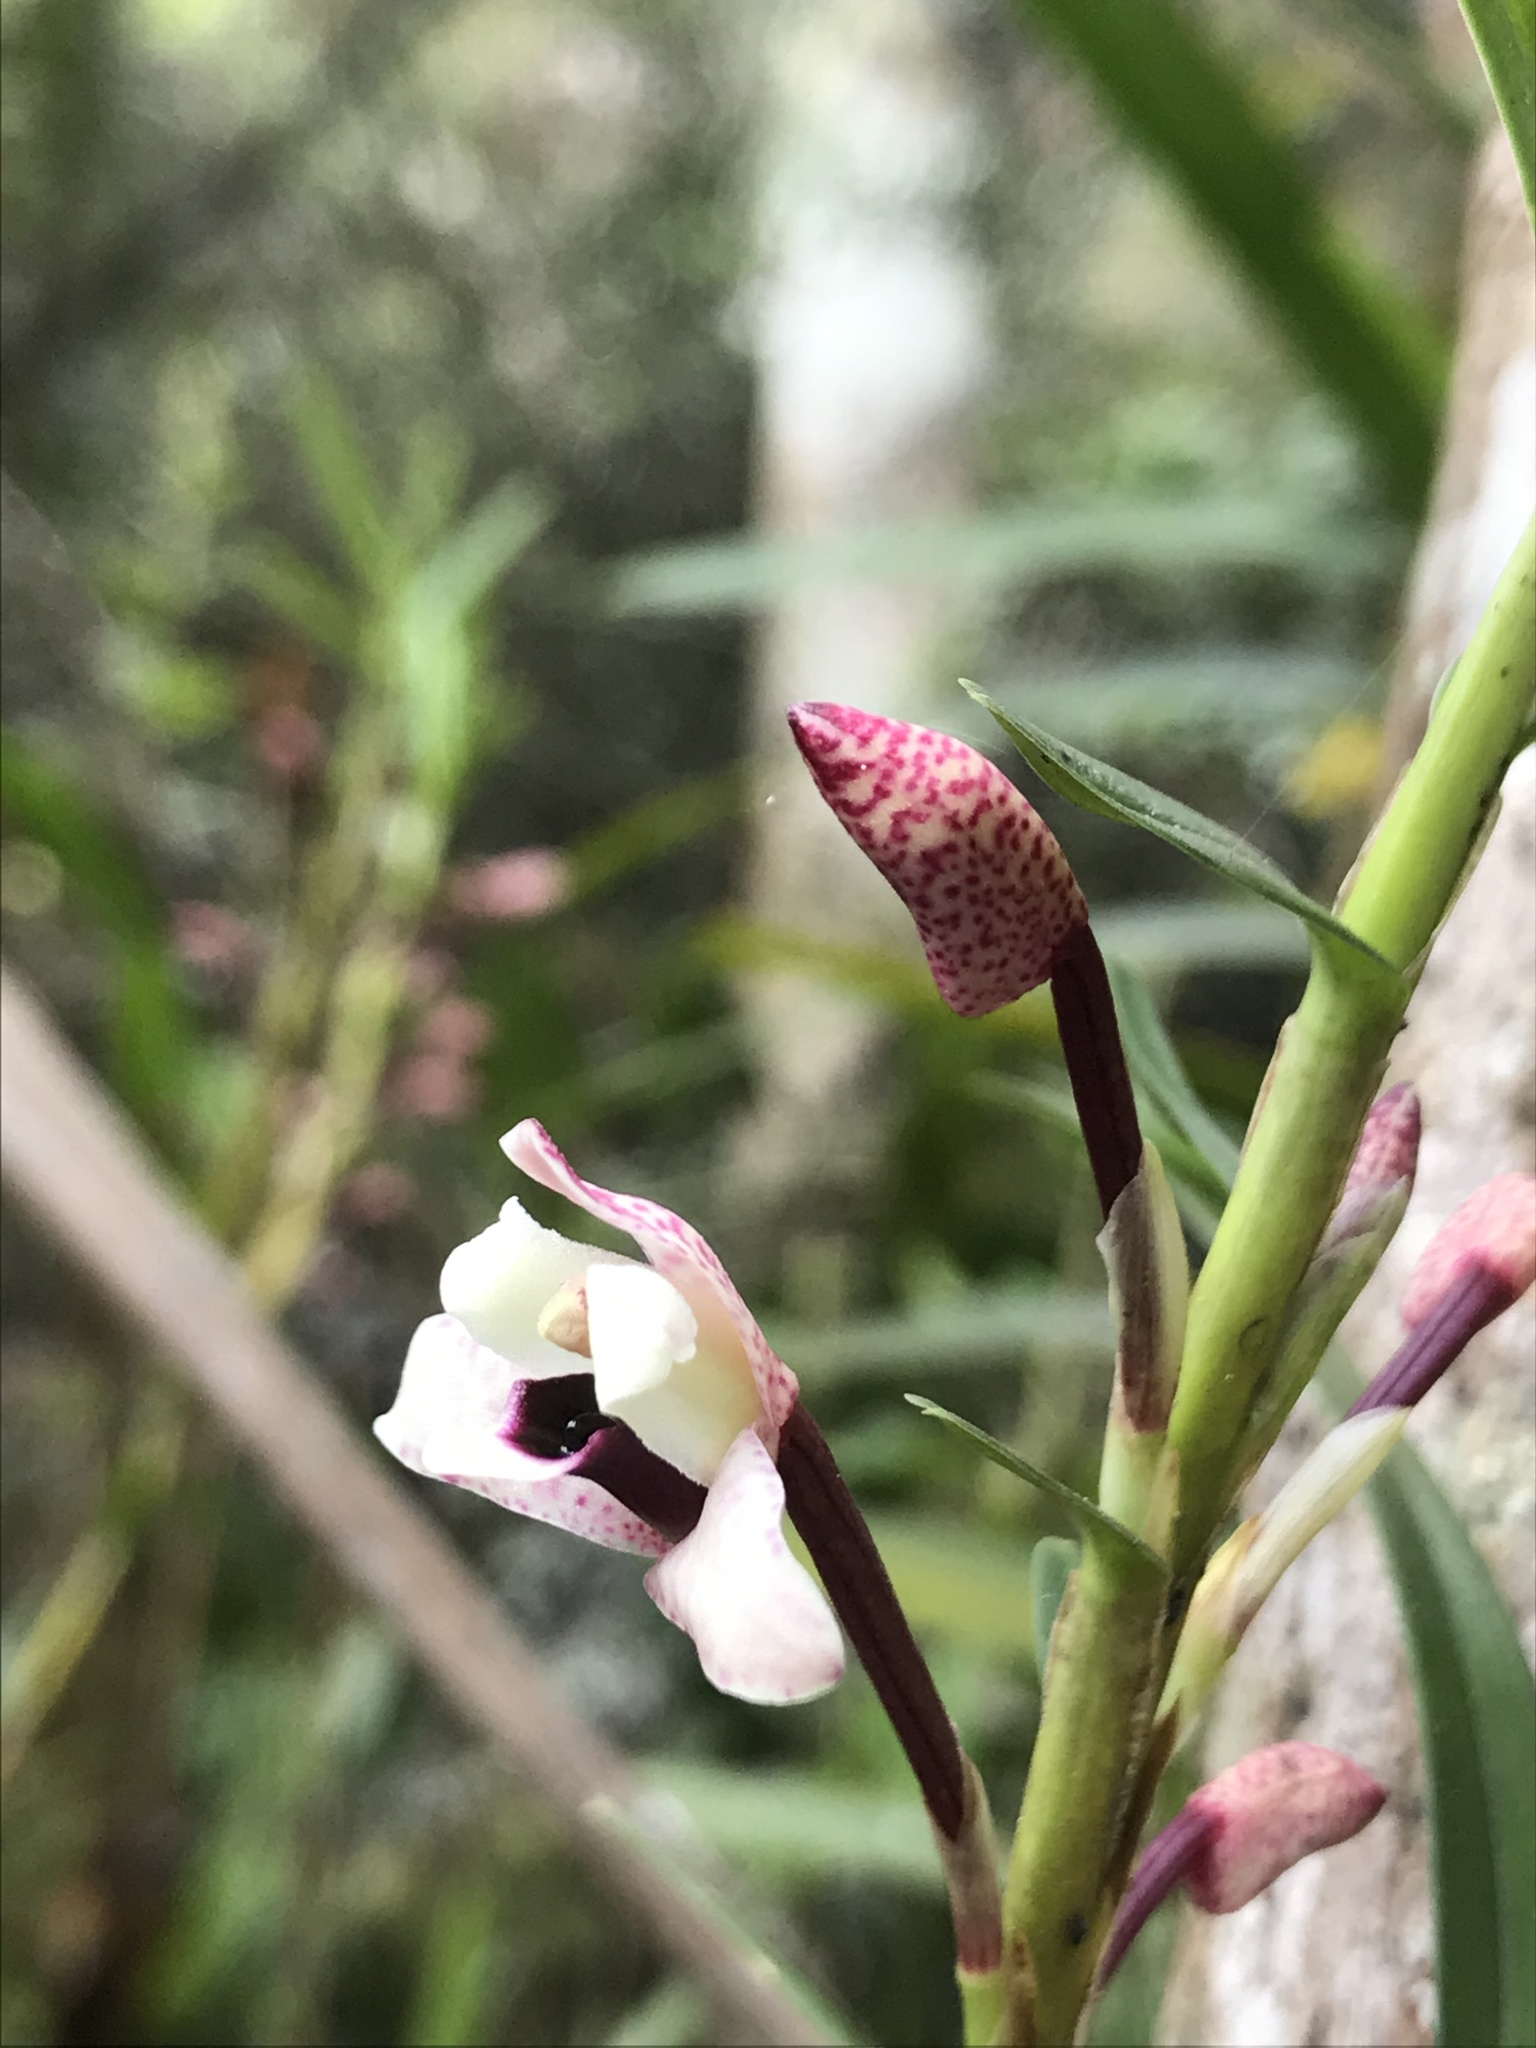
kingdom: Plantae
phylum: Tracheophyta
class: Liliopsida
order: Asparagales
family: Orchidaceae
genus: Maxillaria
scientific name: Maxillaria lawrenceana
